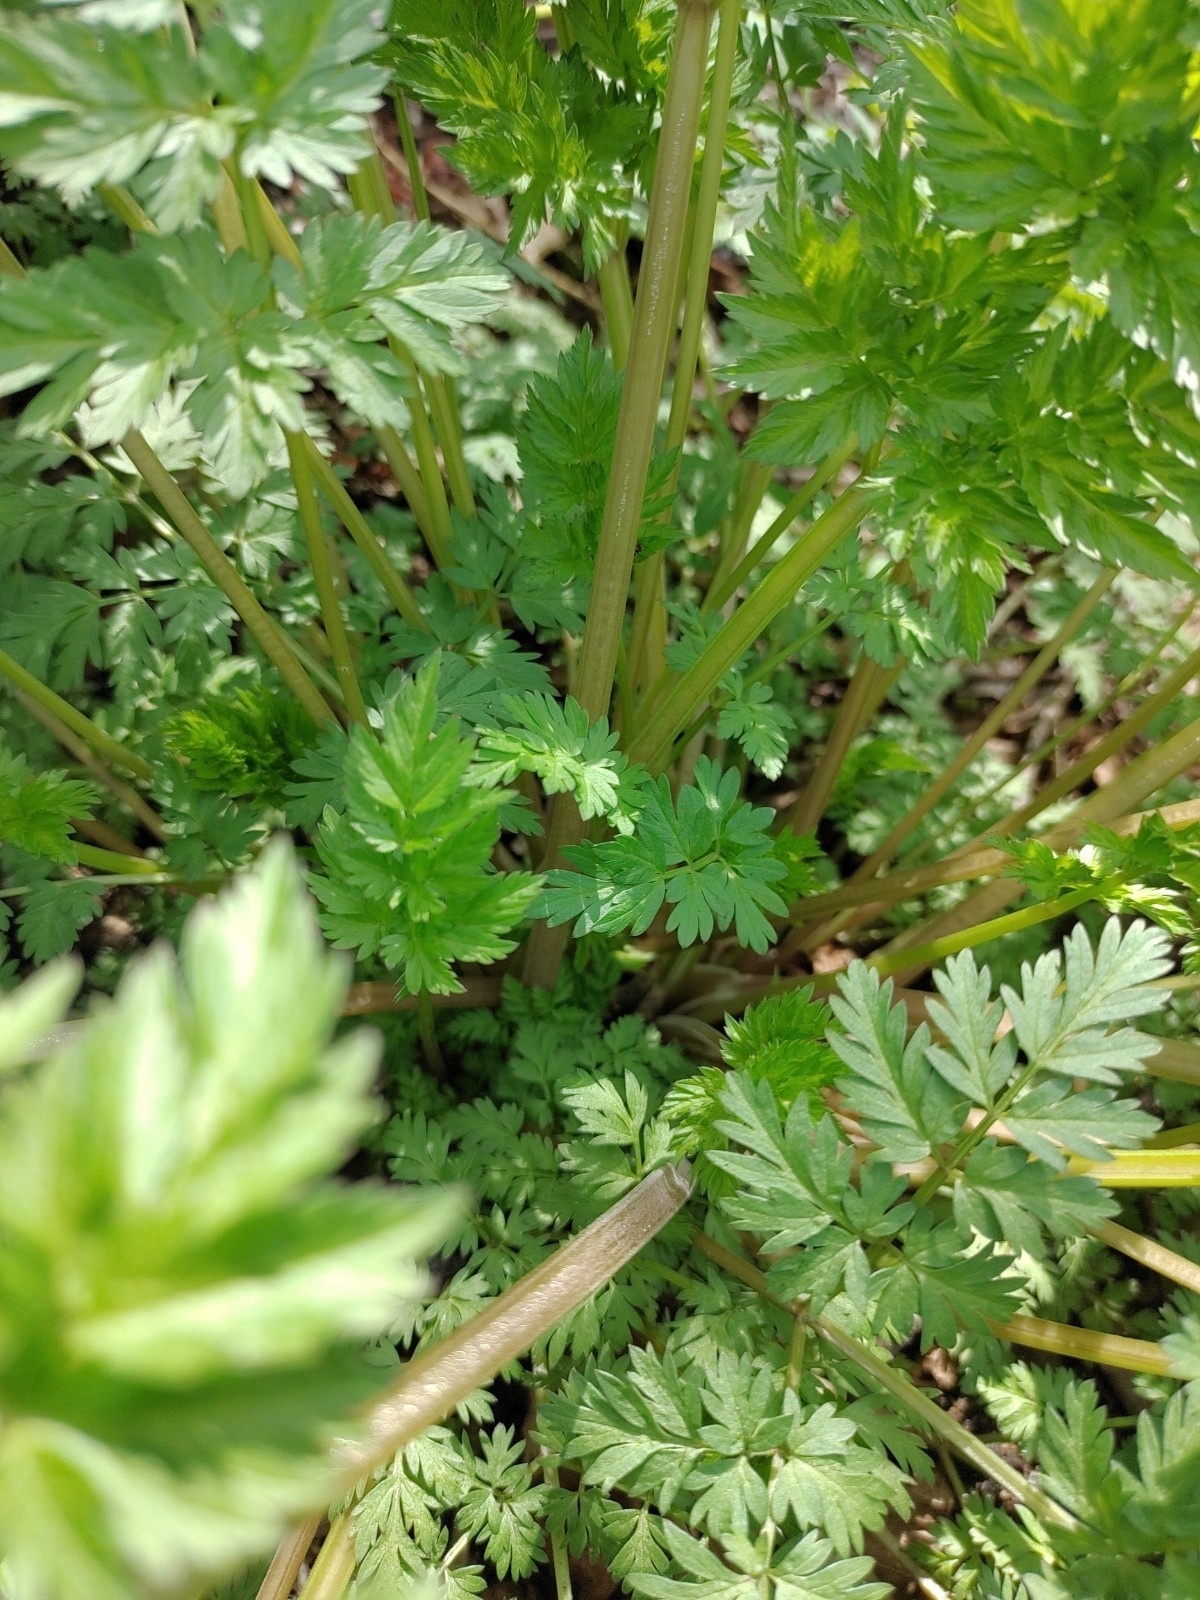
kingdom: Plantae
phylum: Tracheophyta
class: Magnoliopsida
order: Apiales
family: Apiaceae
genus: Anthriscus
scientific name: Anthriscus sylvestris
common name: Cow parsley
